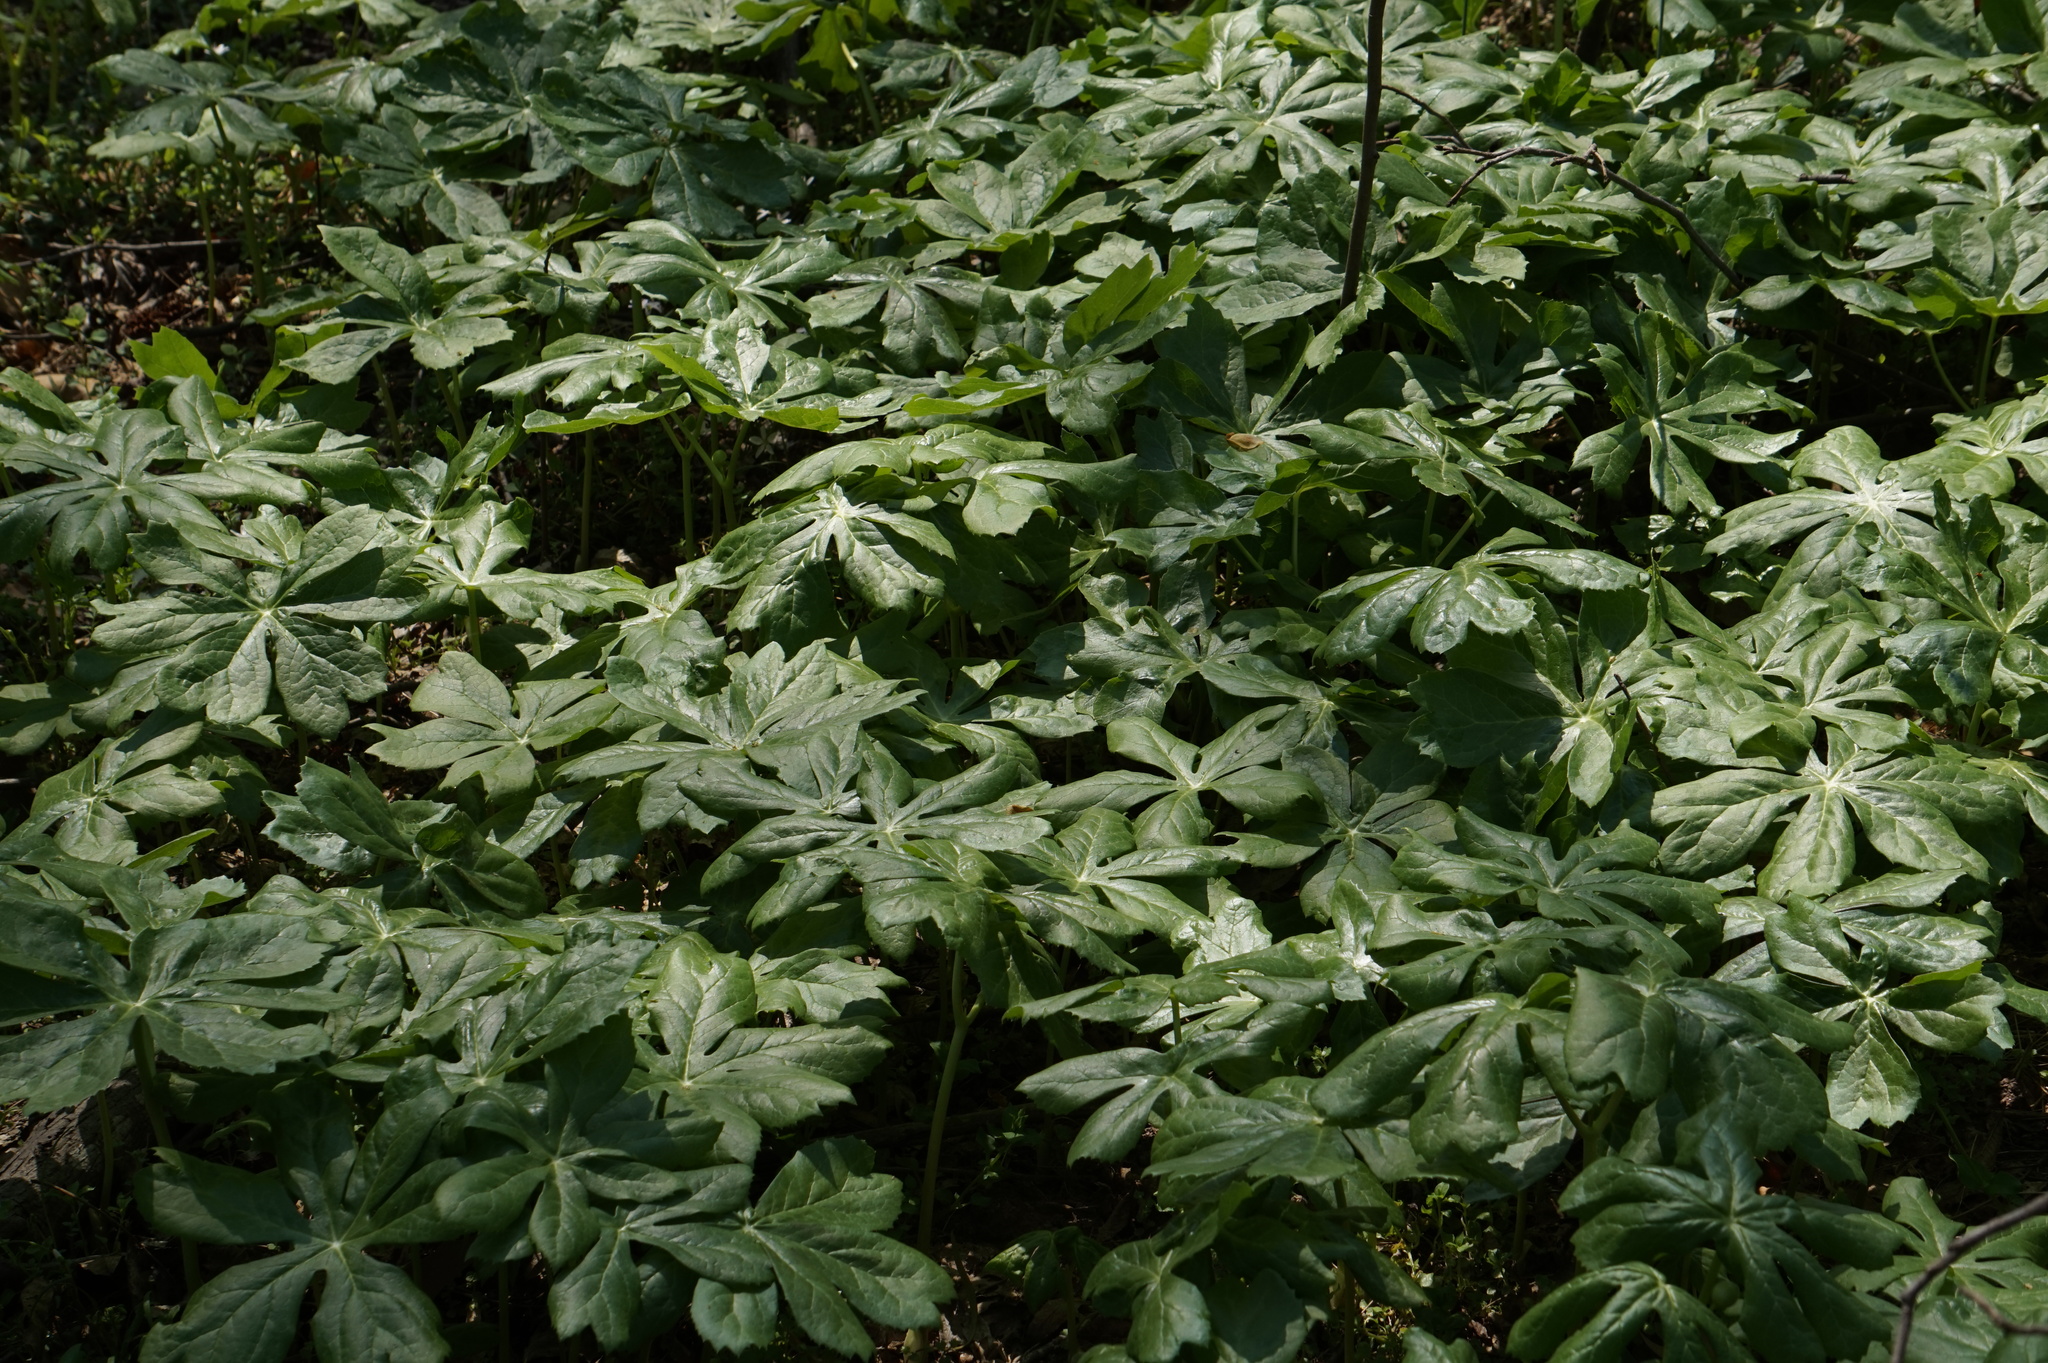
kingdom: Plantae
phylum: Tracheophyta
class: Magnoliopsida
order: Ranunculales
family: Berberidaceae
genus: Podophyllum
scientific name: Podophyllum peltatum
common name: Wild mandrake
